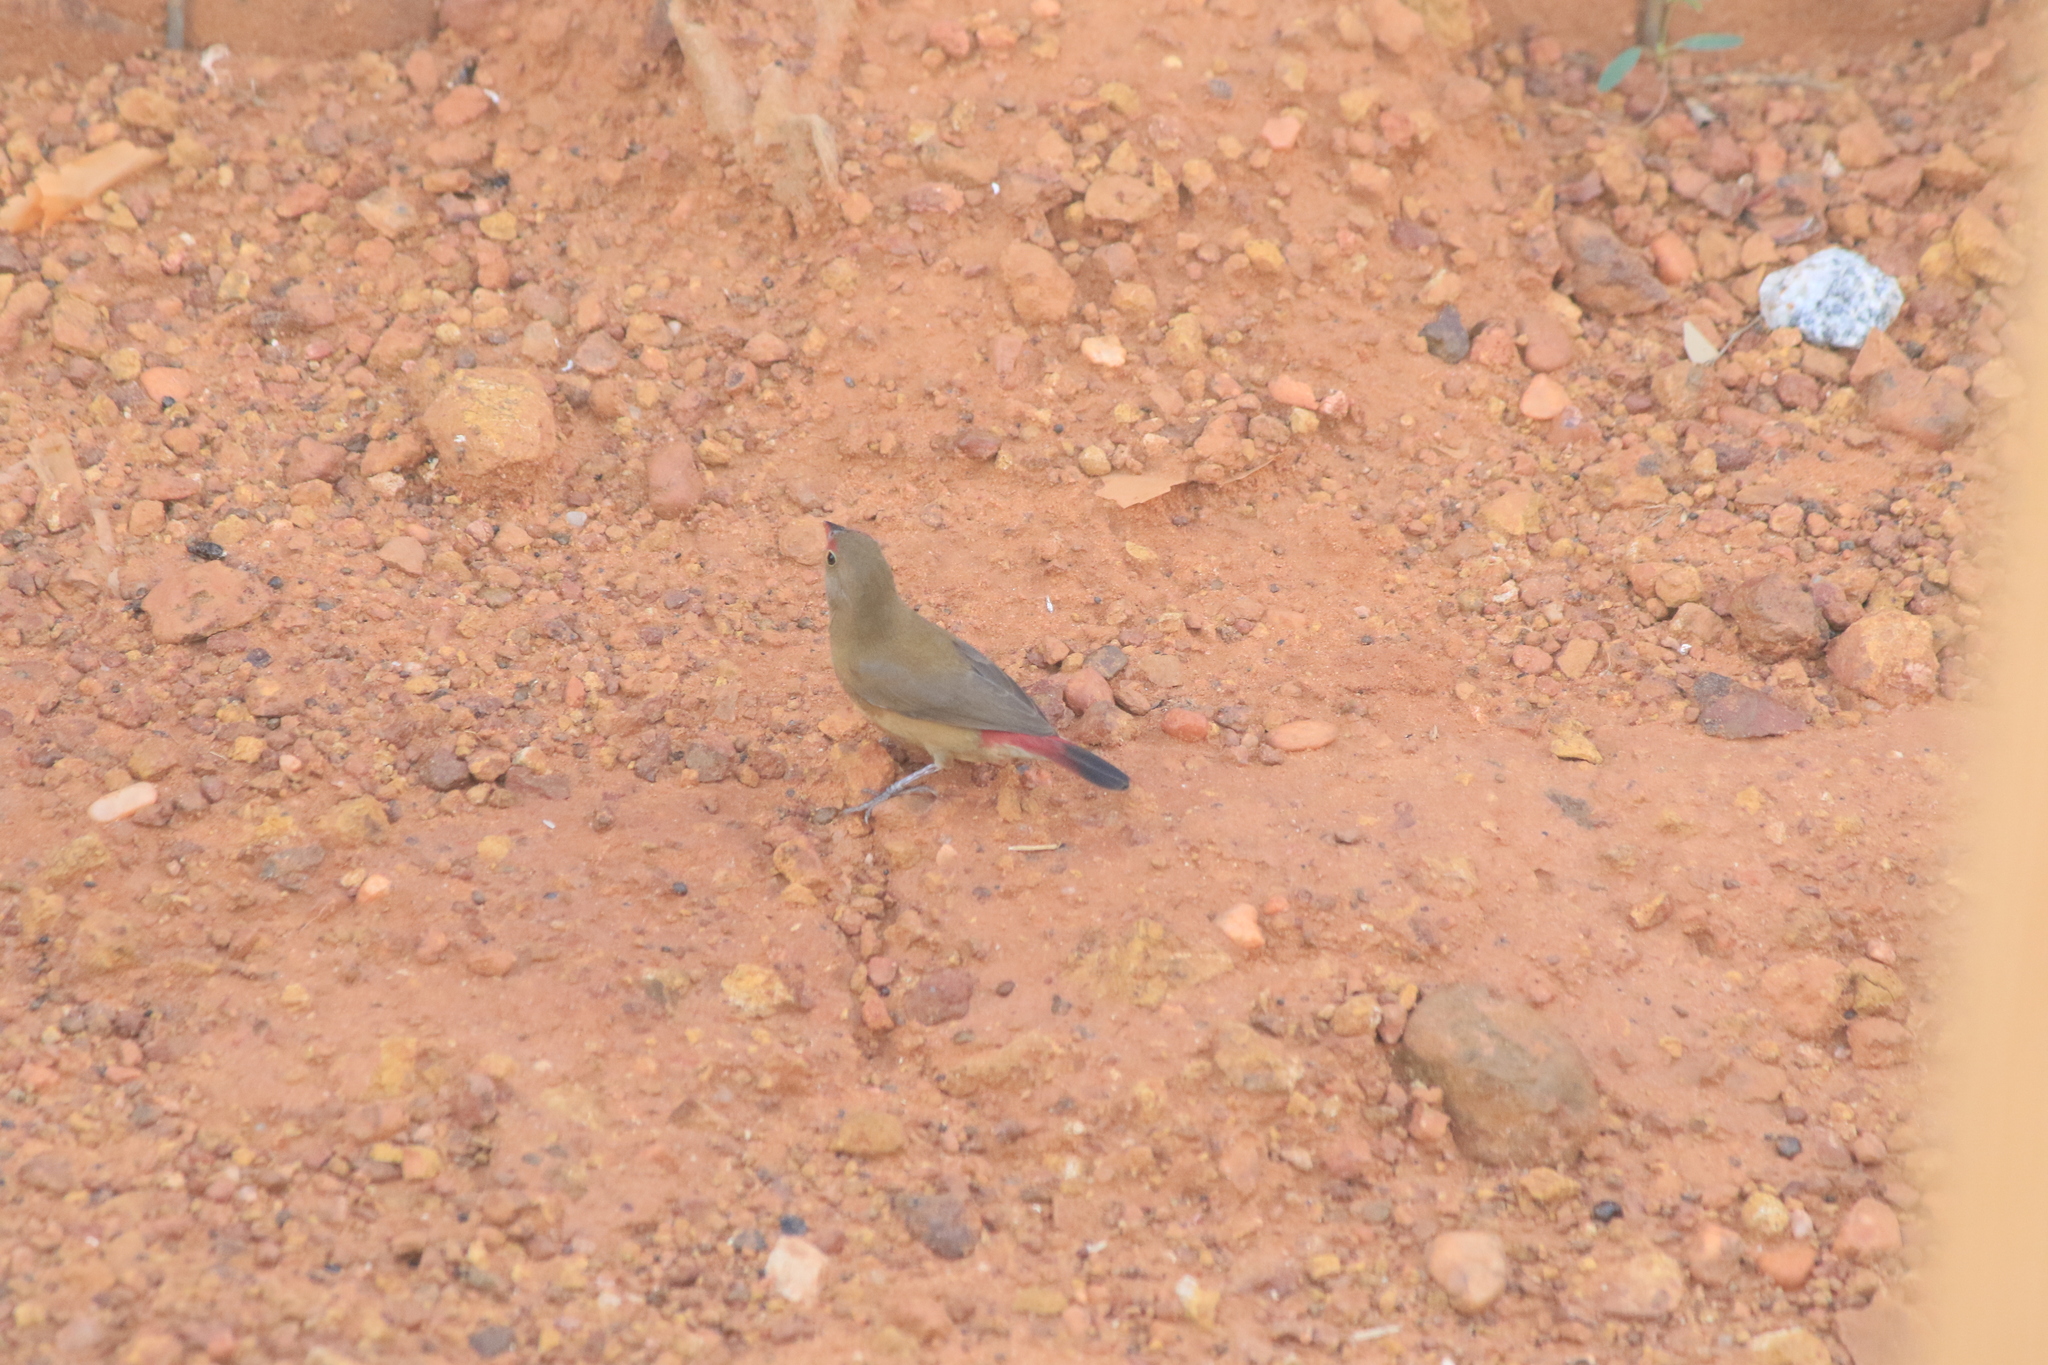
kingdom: Animalia
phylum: Chordata
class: Aves
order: Passeriformes
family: Estrildidae
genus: Lagonosticta
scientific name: Lagonosticta senegala
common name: Red-billed firefinch
